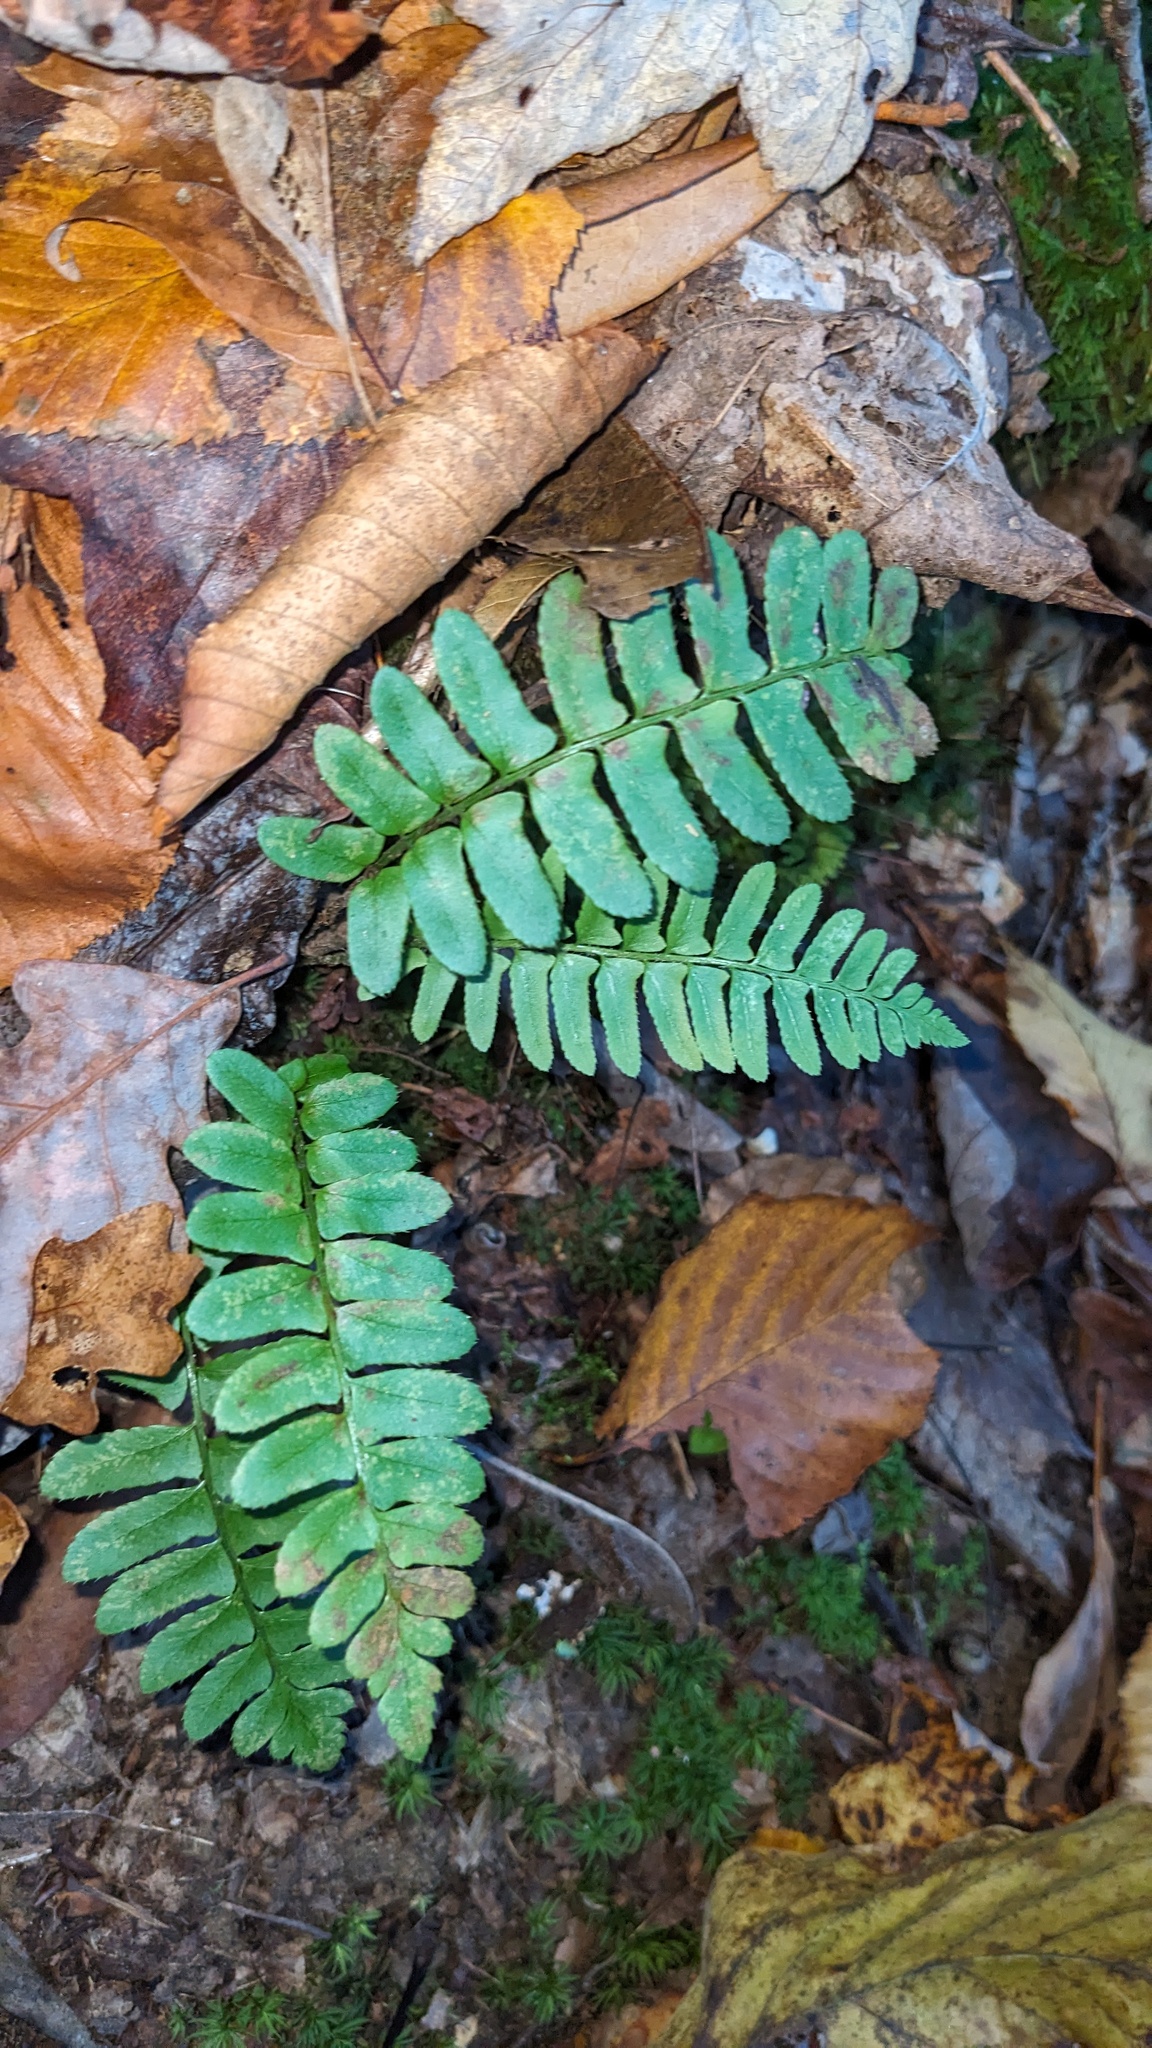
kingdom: Plantae
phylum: Tracheophyta
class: Polypodiopsida
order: Polypodiales
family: Dryopteridaceae
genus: Polystichum
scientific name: Polystichum acrostichoides
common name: Christmas fern
